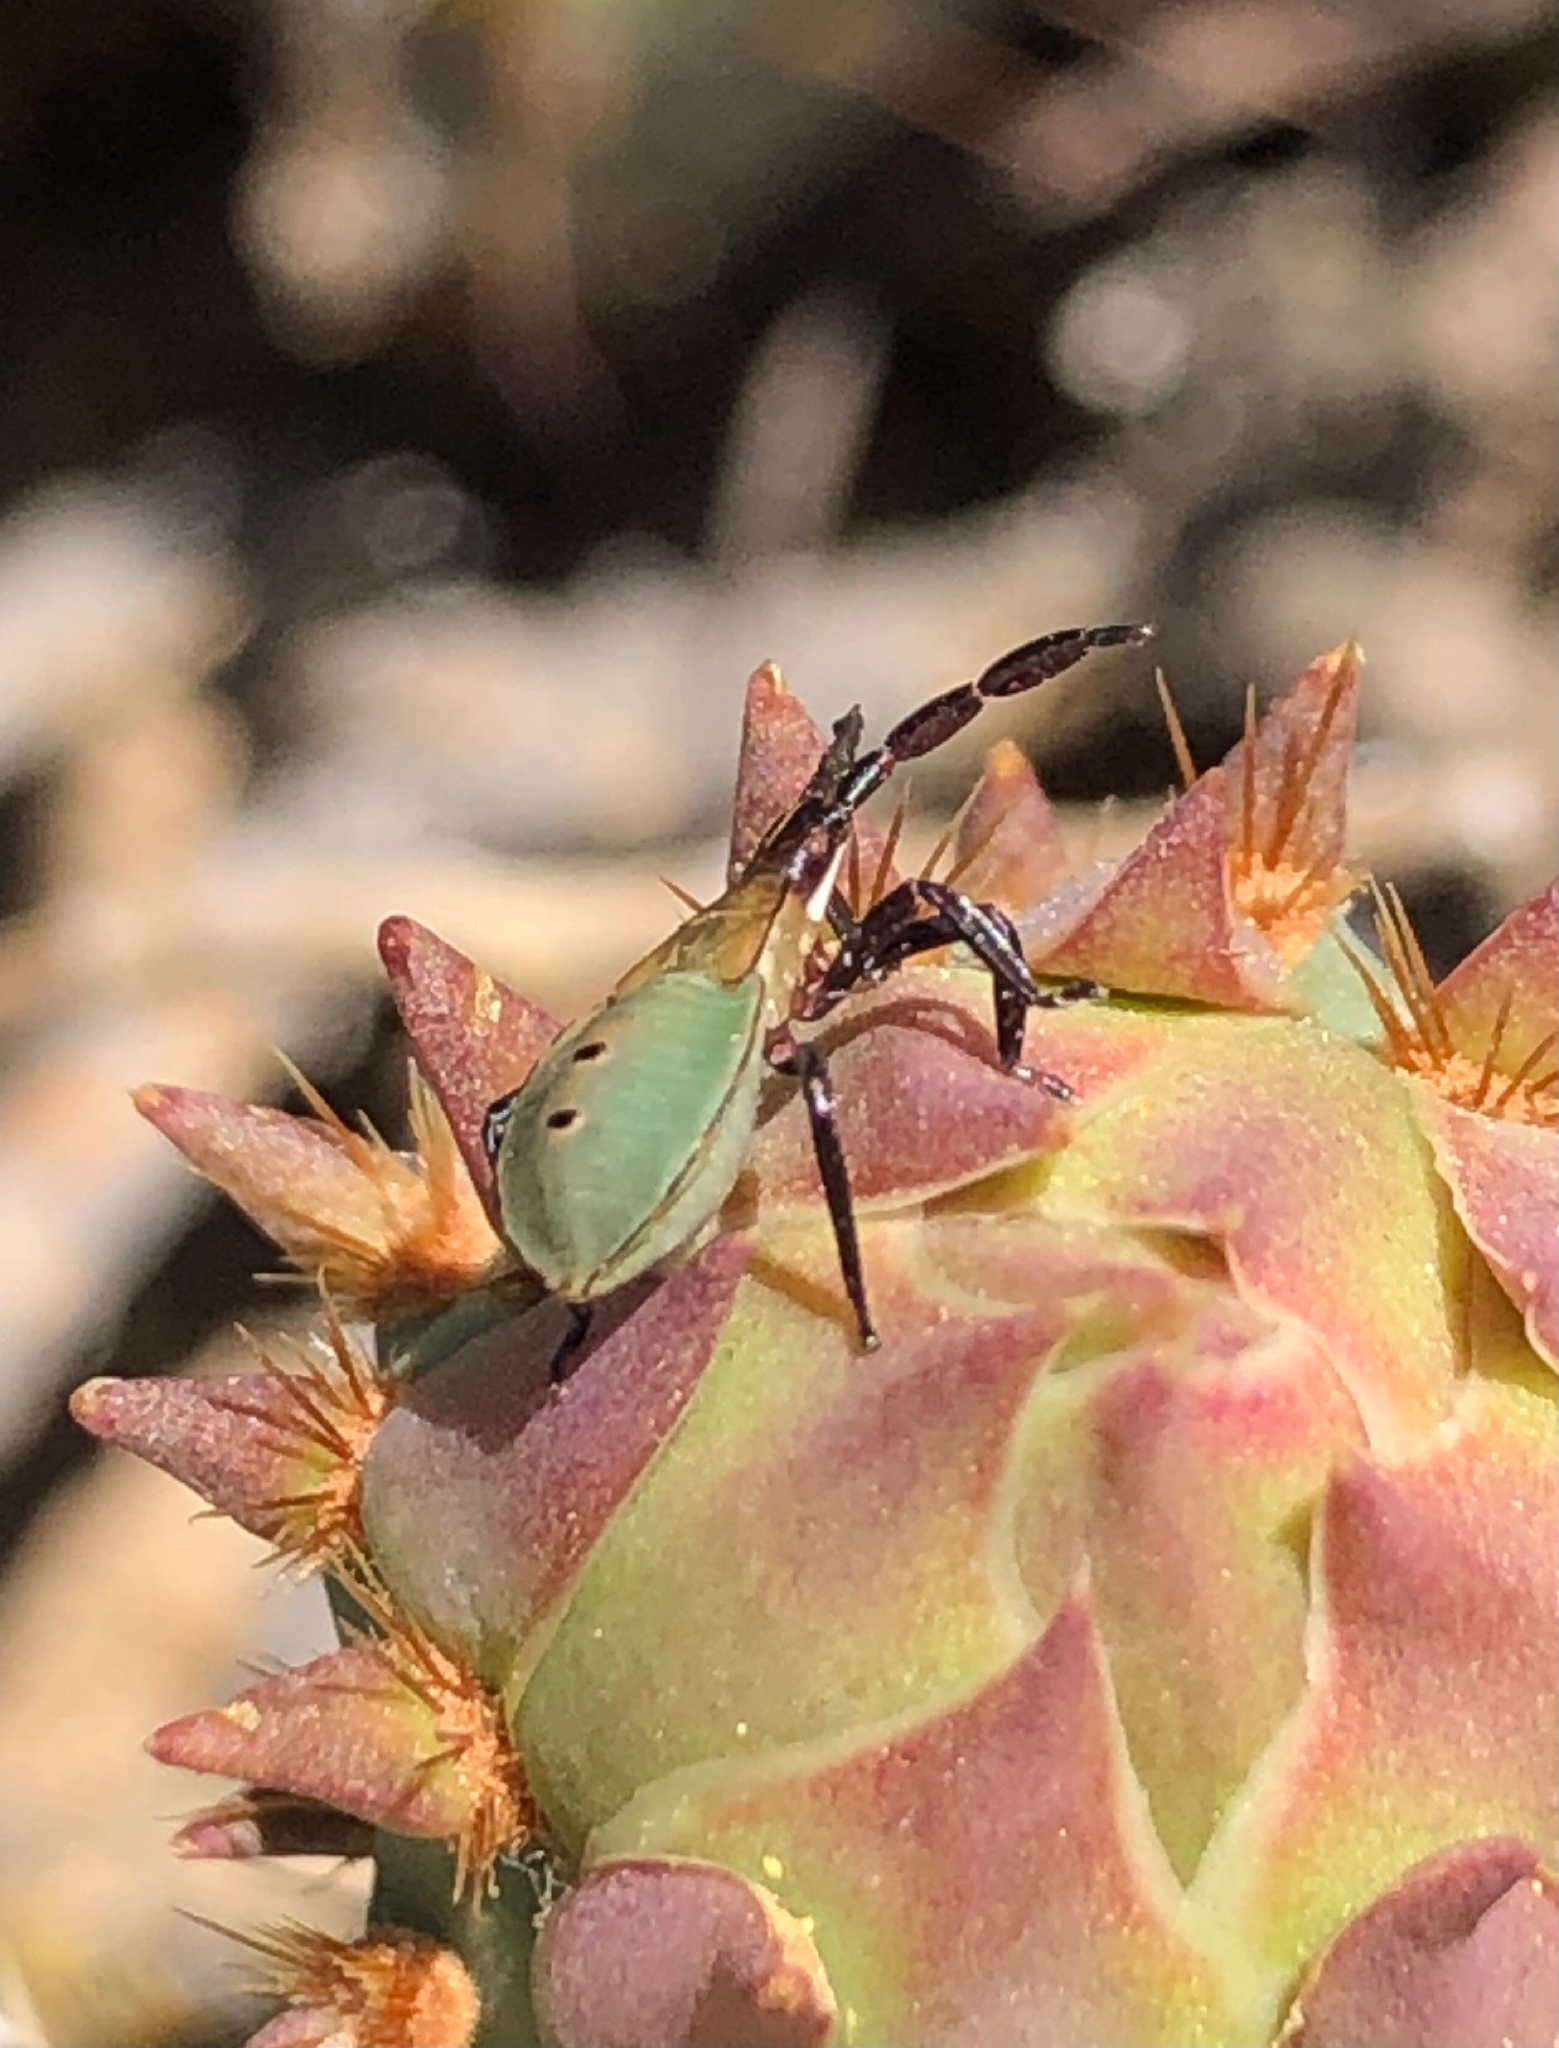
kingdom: Animalia
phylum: Arthropoda
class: Insecta
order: Hemiptera
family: Coreidae
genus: Chelinidea
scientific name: Chelinidea vittiger
